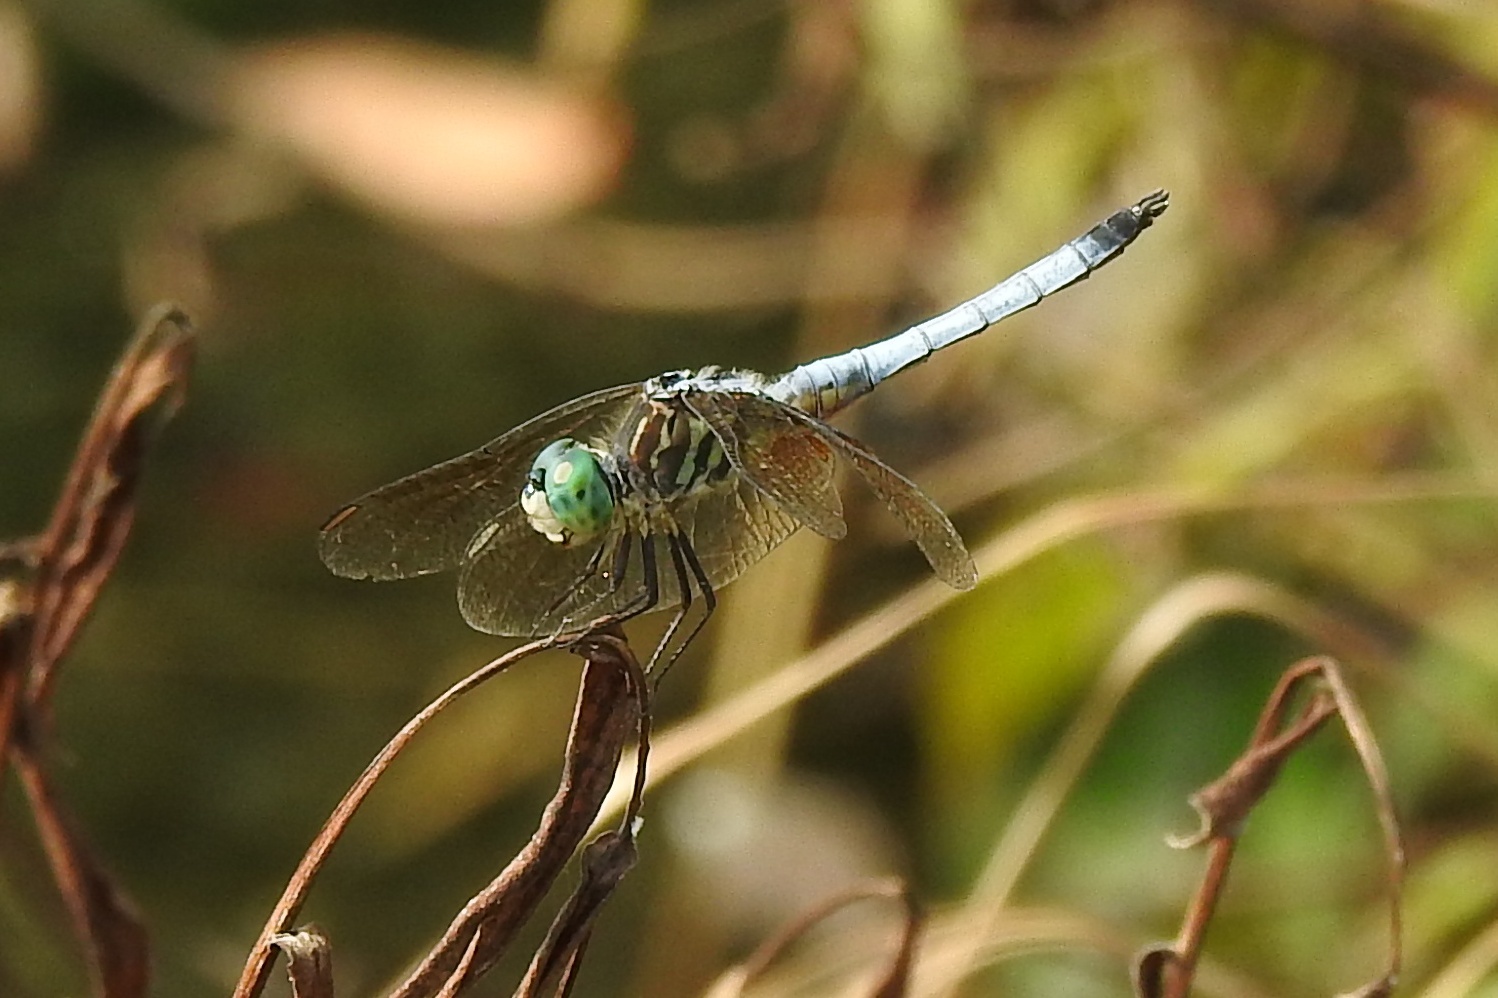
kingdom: Animalia
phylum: Arthropoda
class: Insecta
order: Odonata
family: Libellulidae
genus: Pachydiplax
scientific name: Pachydiplax longipennis
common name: Blue dasher
